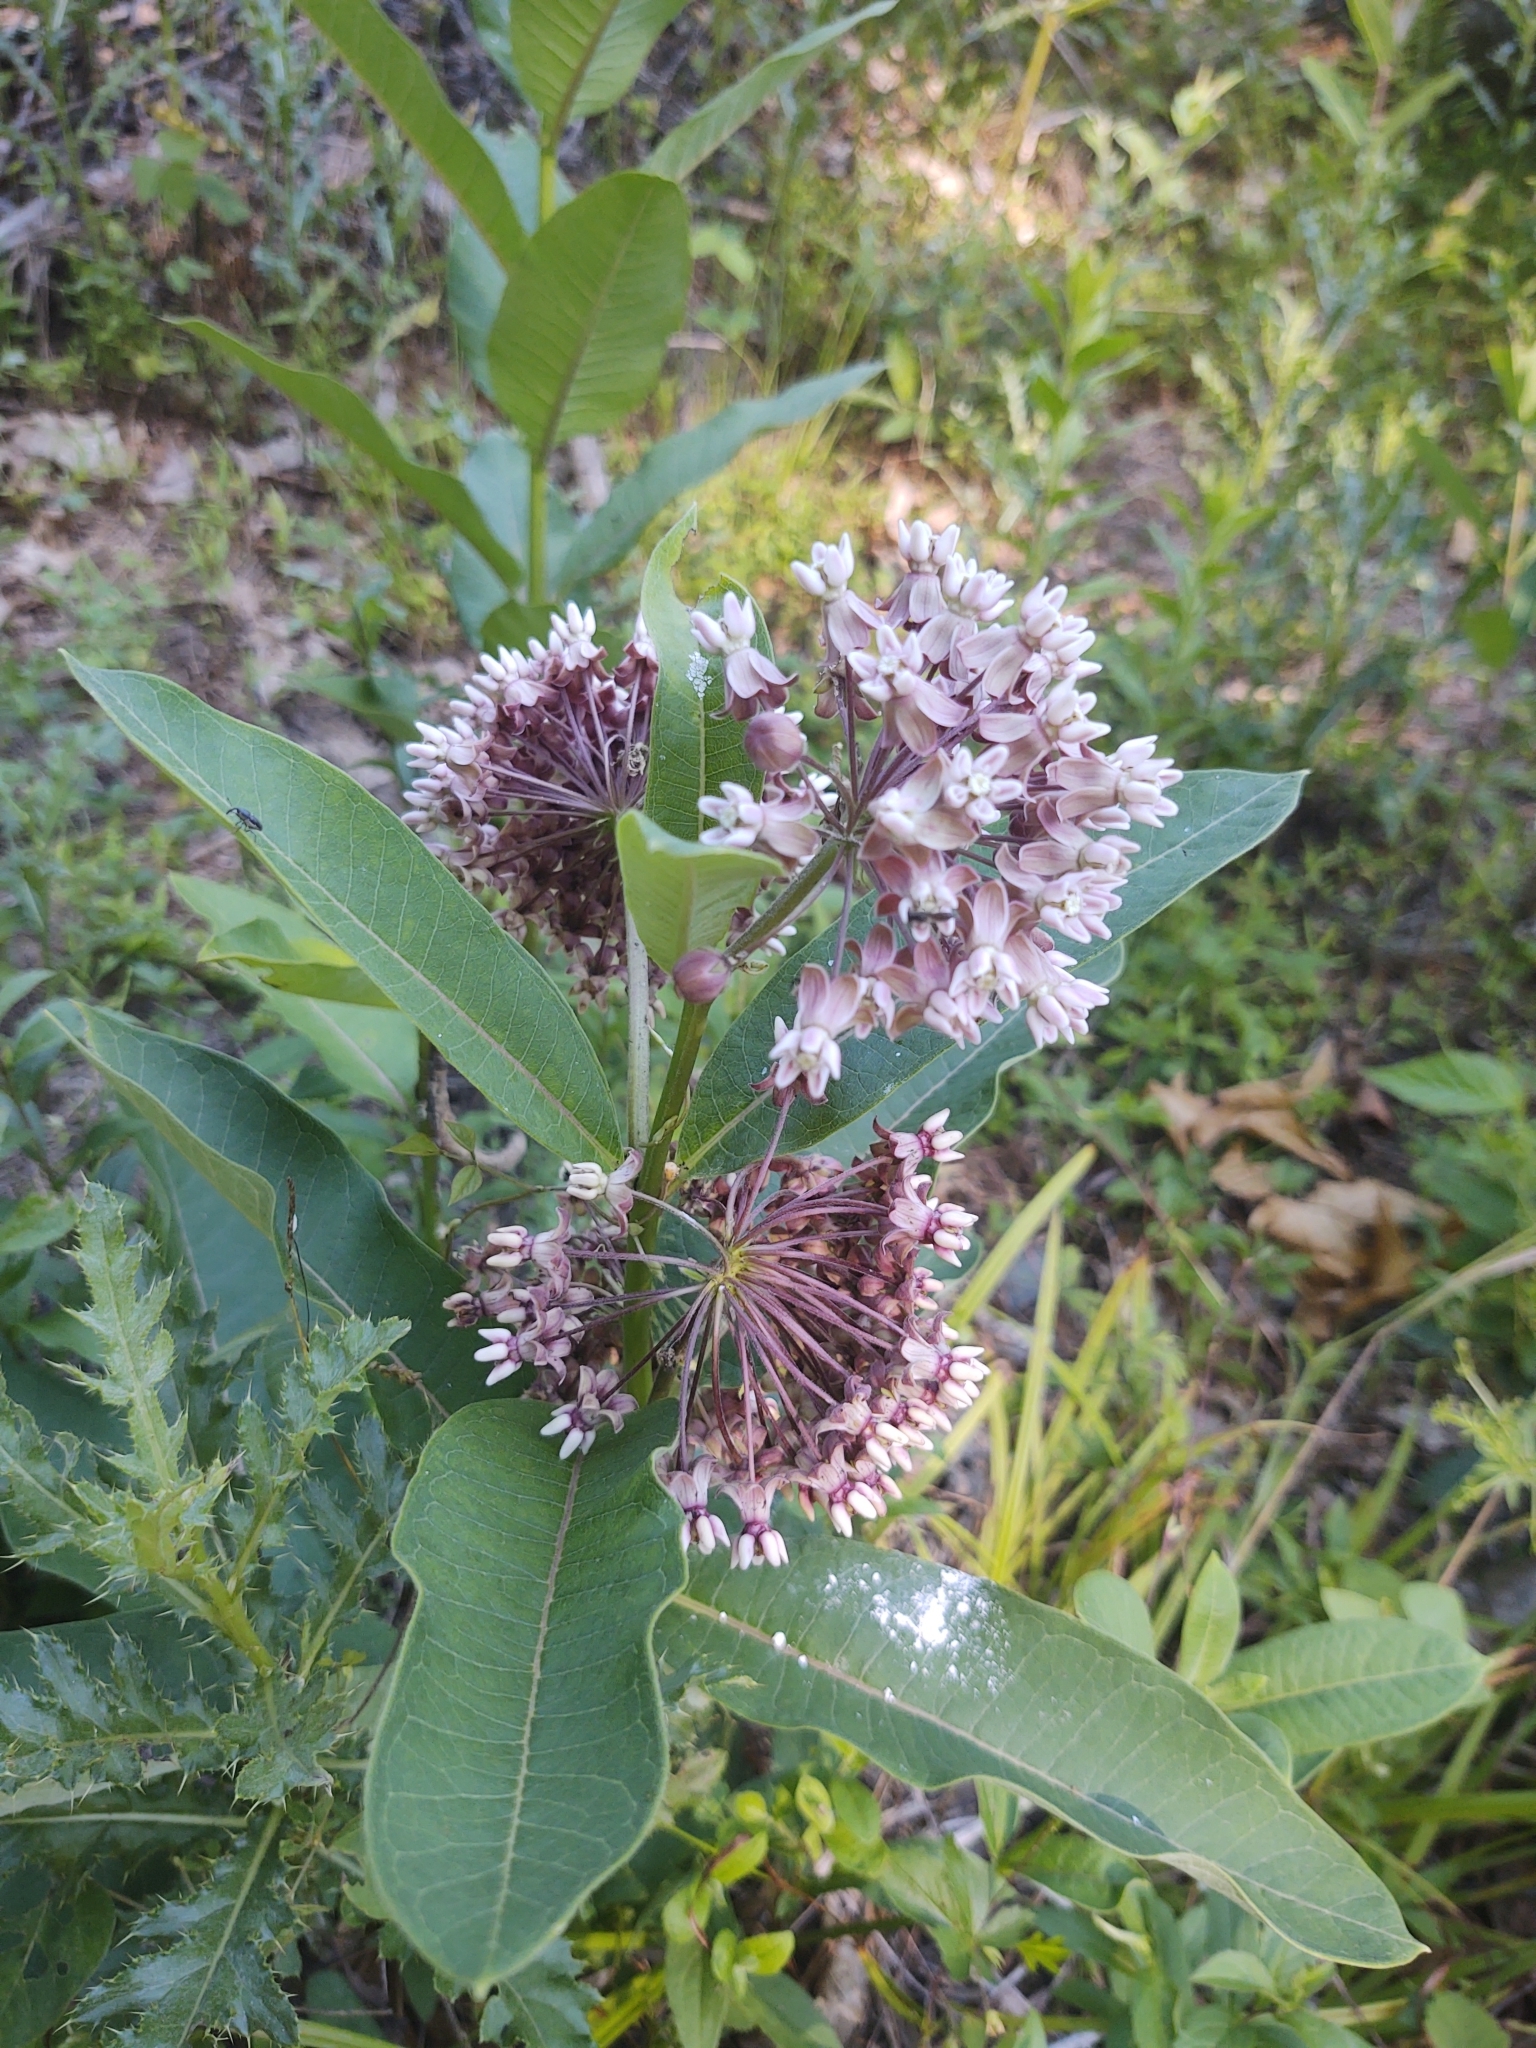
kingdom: Plantae
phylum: Tracheophyta
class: Magnoliopsida
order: Gentianales
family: Apocynaceae
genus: Asclepias
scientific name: Asclepias syriaca
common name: Common milkweed
